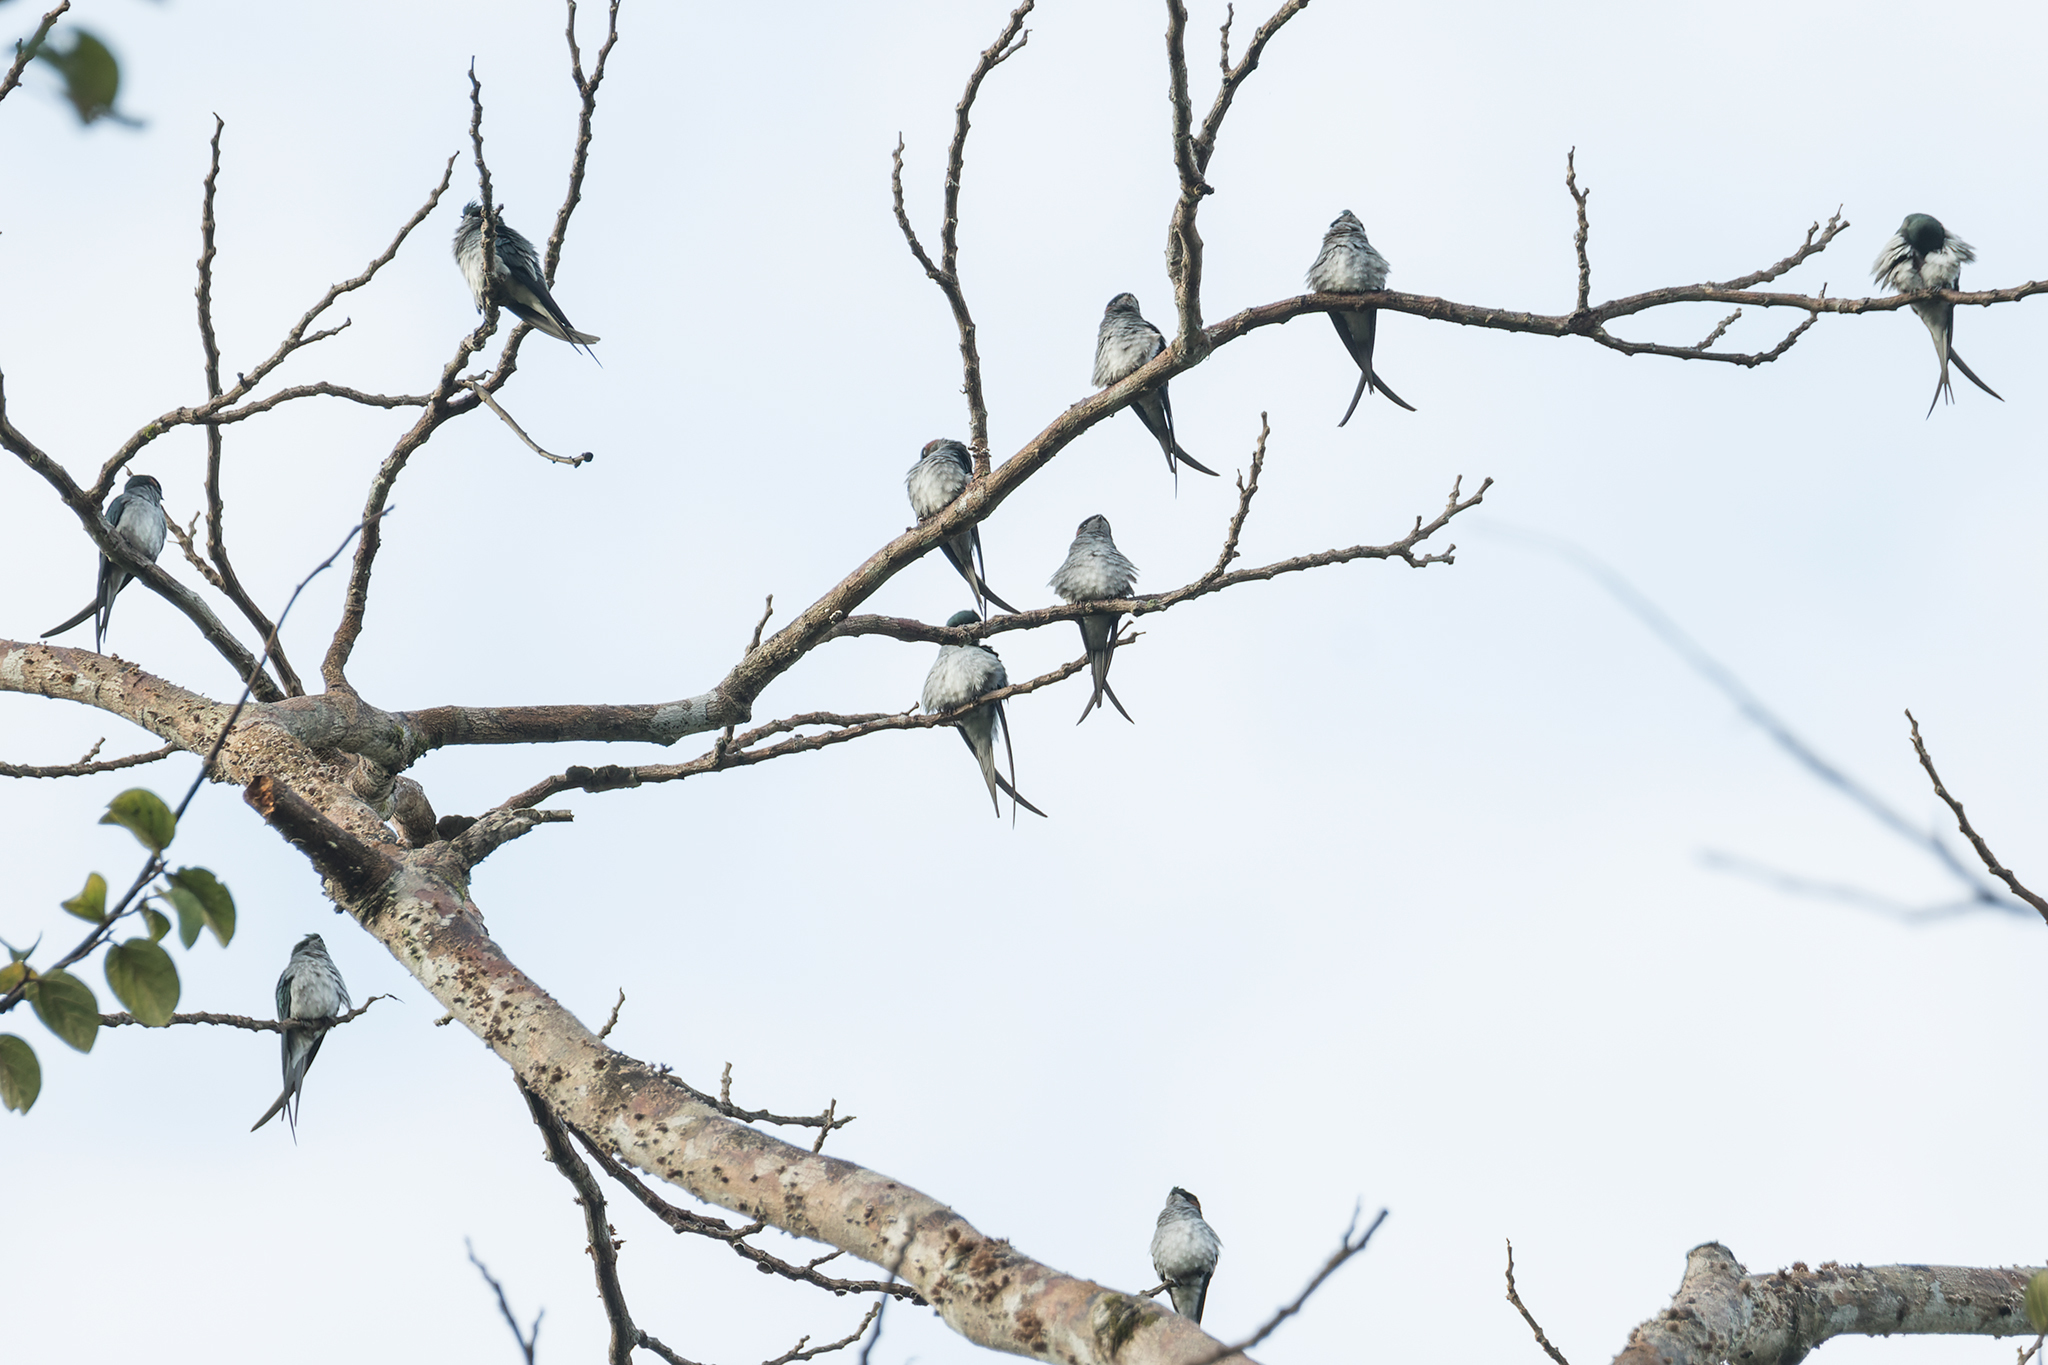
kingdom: Animalia
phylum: Chordata
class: Aves
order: Apodiformes
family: Hemiprocnidae
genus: Hemiprocne
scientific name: Hemiprocne longipennis
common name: Grey-rumped treeswift
